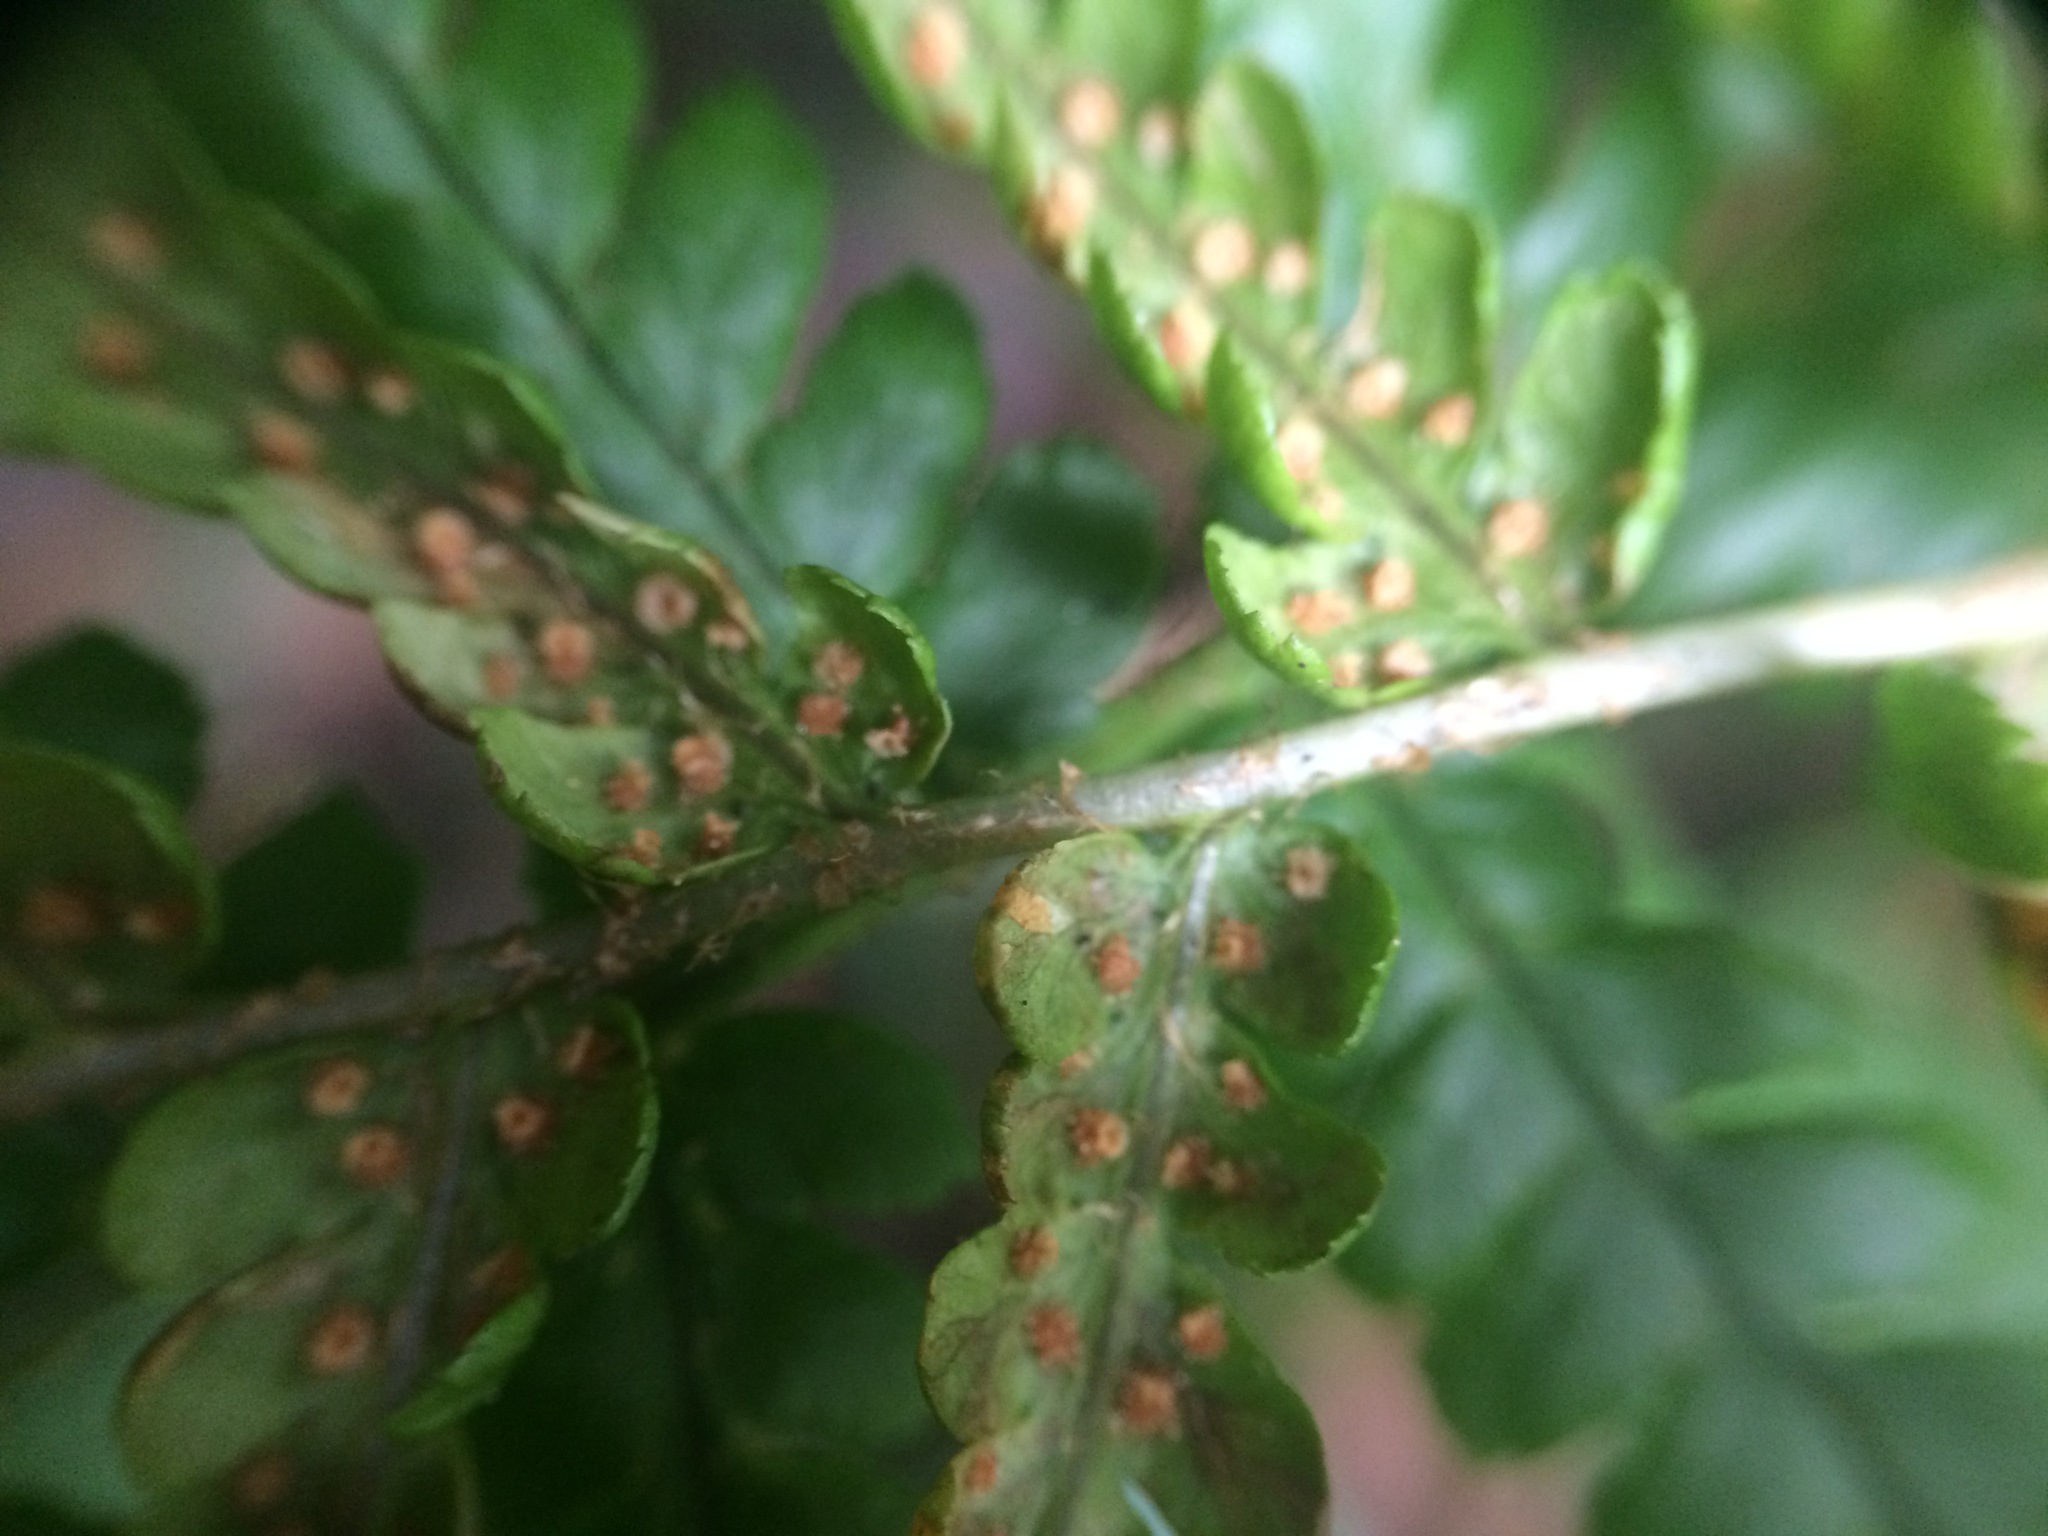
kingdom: Plantae
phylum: Tracheophyta
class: Polypodiopsida
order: Polypodiales
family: Dryopteridaceae
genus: Dryopteris
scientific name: Dryopteris filix-mas
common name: Male fern
